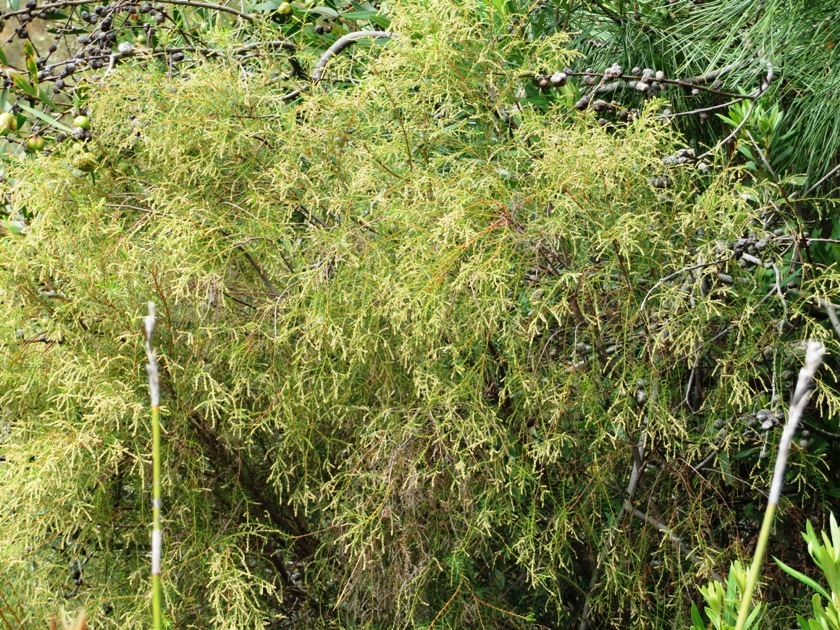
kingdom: Plantae
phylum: Tracheophyta
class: Magnoliopsida
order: Bruniales
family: Bruniaceae
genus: Brunia
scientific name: Brunia africana
